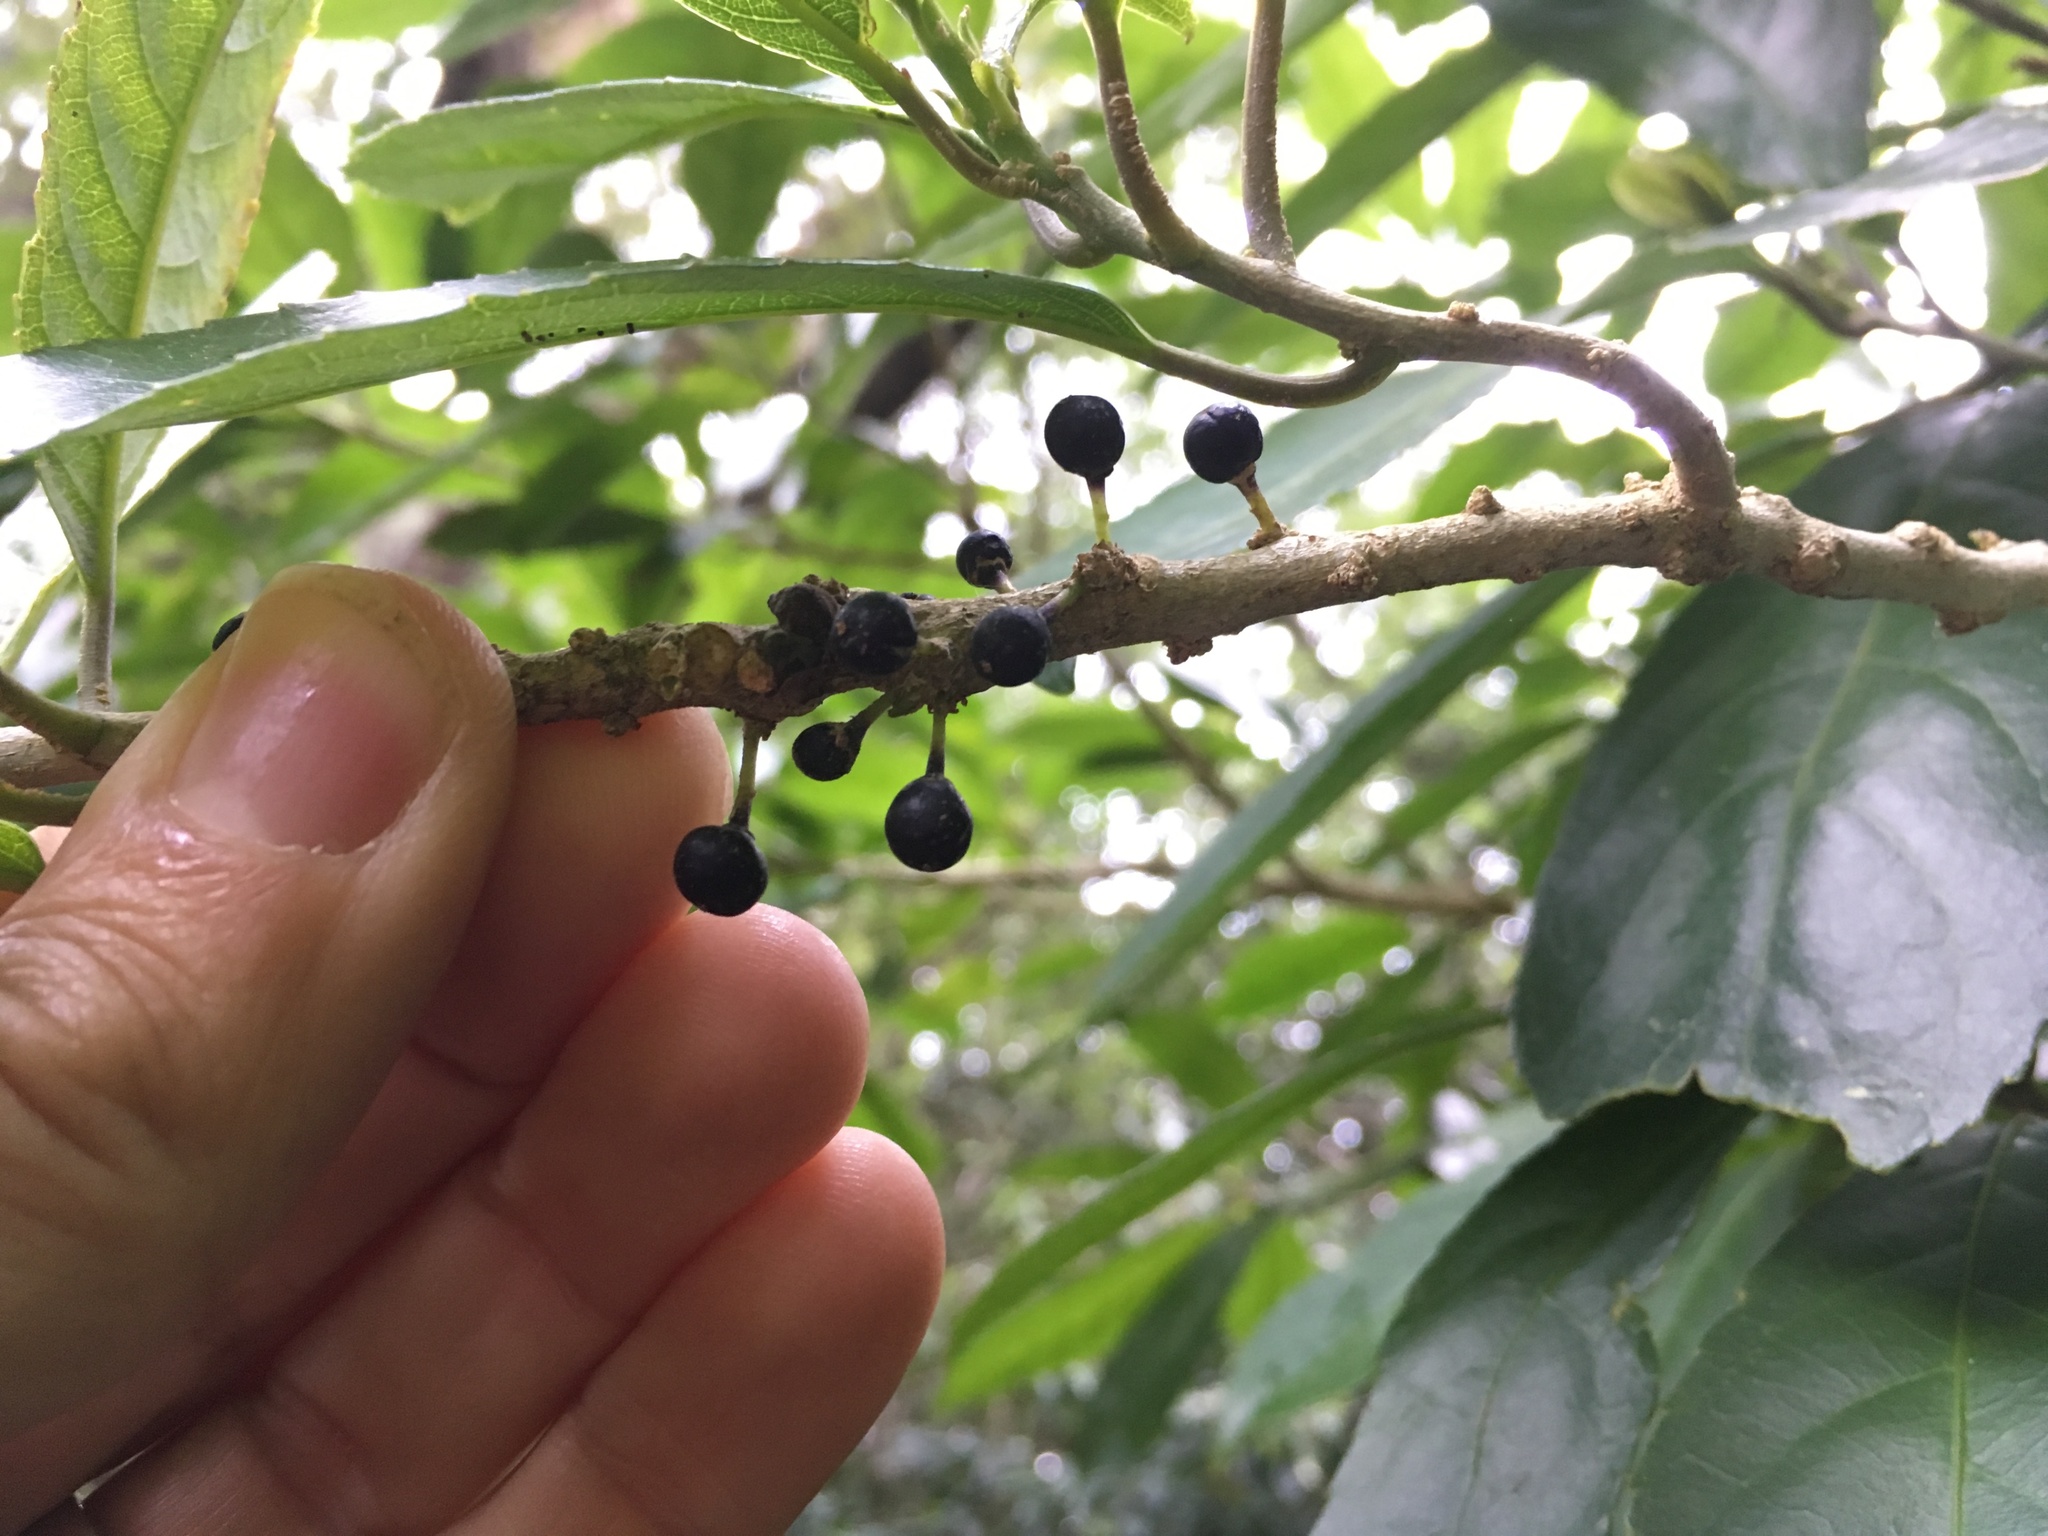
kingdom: Plantae
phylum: Tracheophyta
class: Magnoliopsida
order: Malpighiales
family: Violaceae
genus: Melicytus
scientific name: Melicytus ramiflorus
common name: Mahoe
